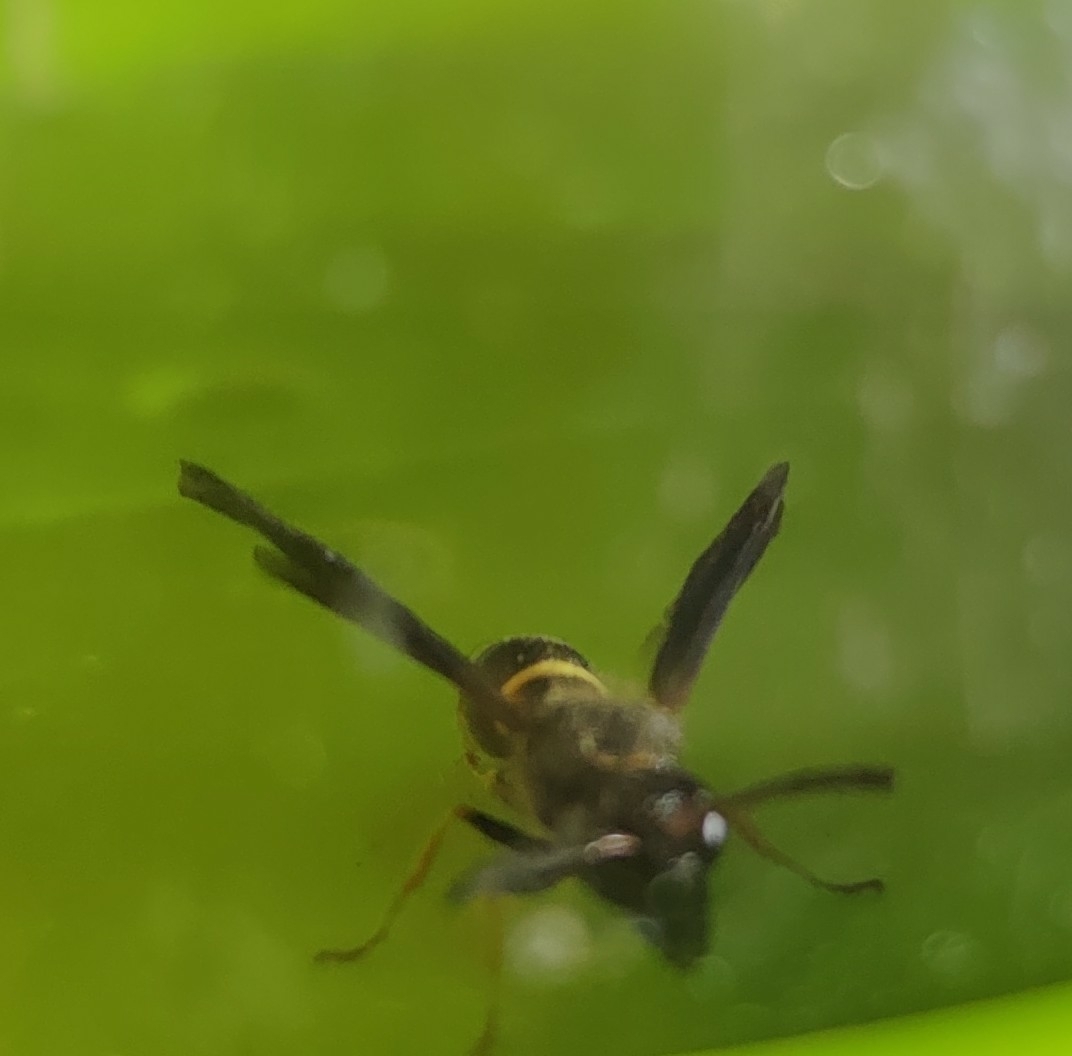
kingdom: Animalia
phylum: Arthropoda
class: Insecta
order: Hymenoptera
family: Vespidae
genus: Ancistrocerus
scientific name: Ancistrocerus unifasciatus
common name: One-banded mason wasp
